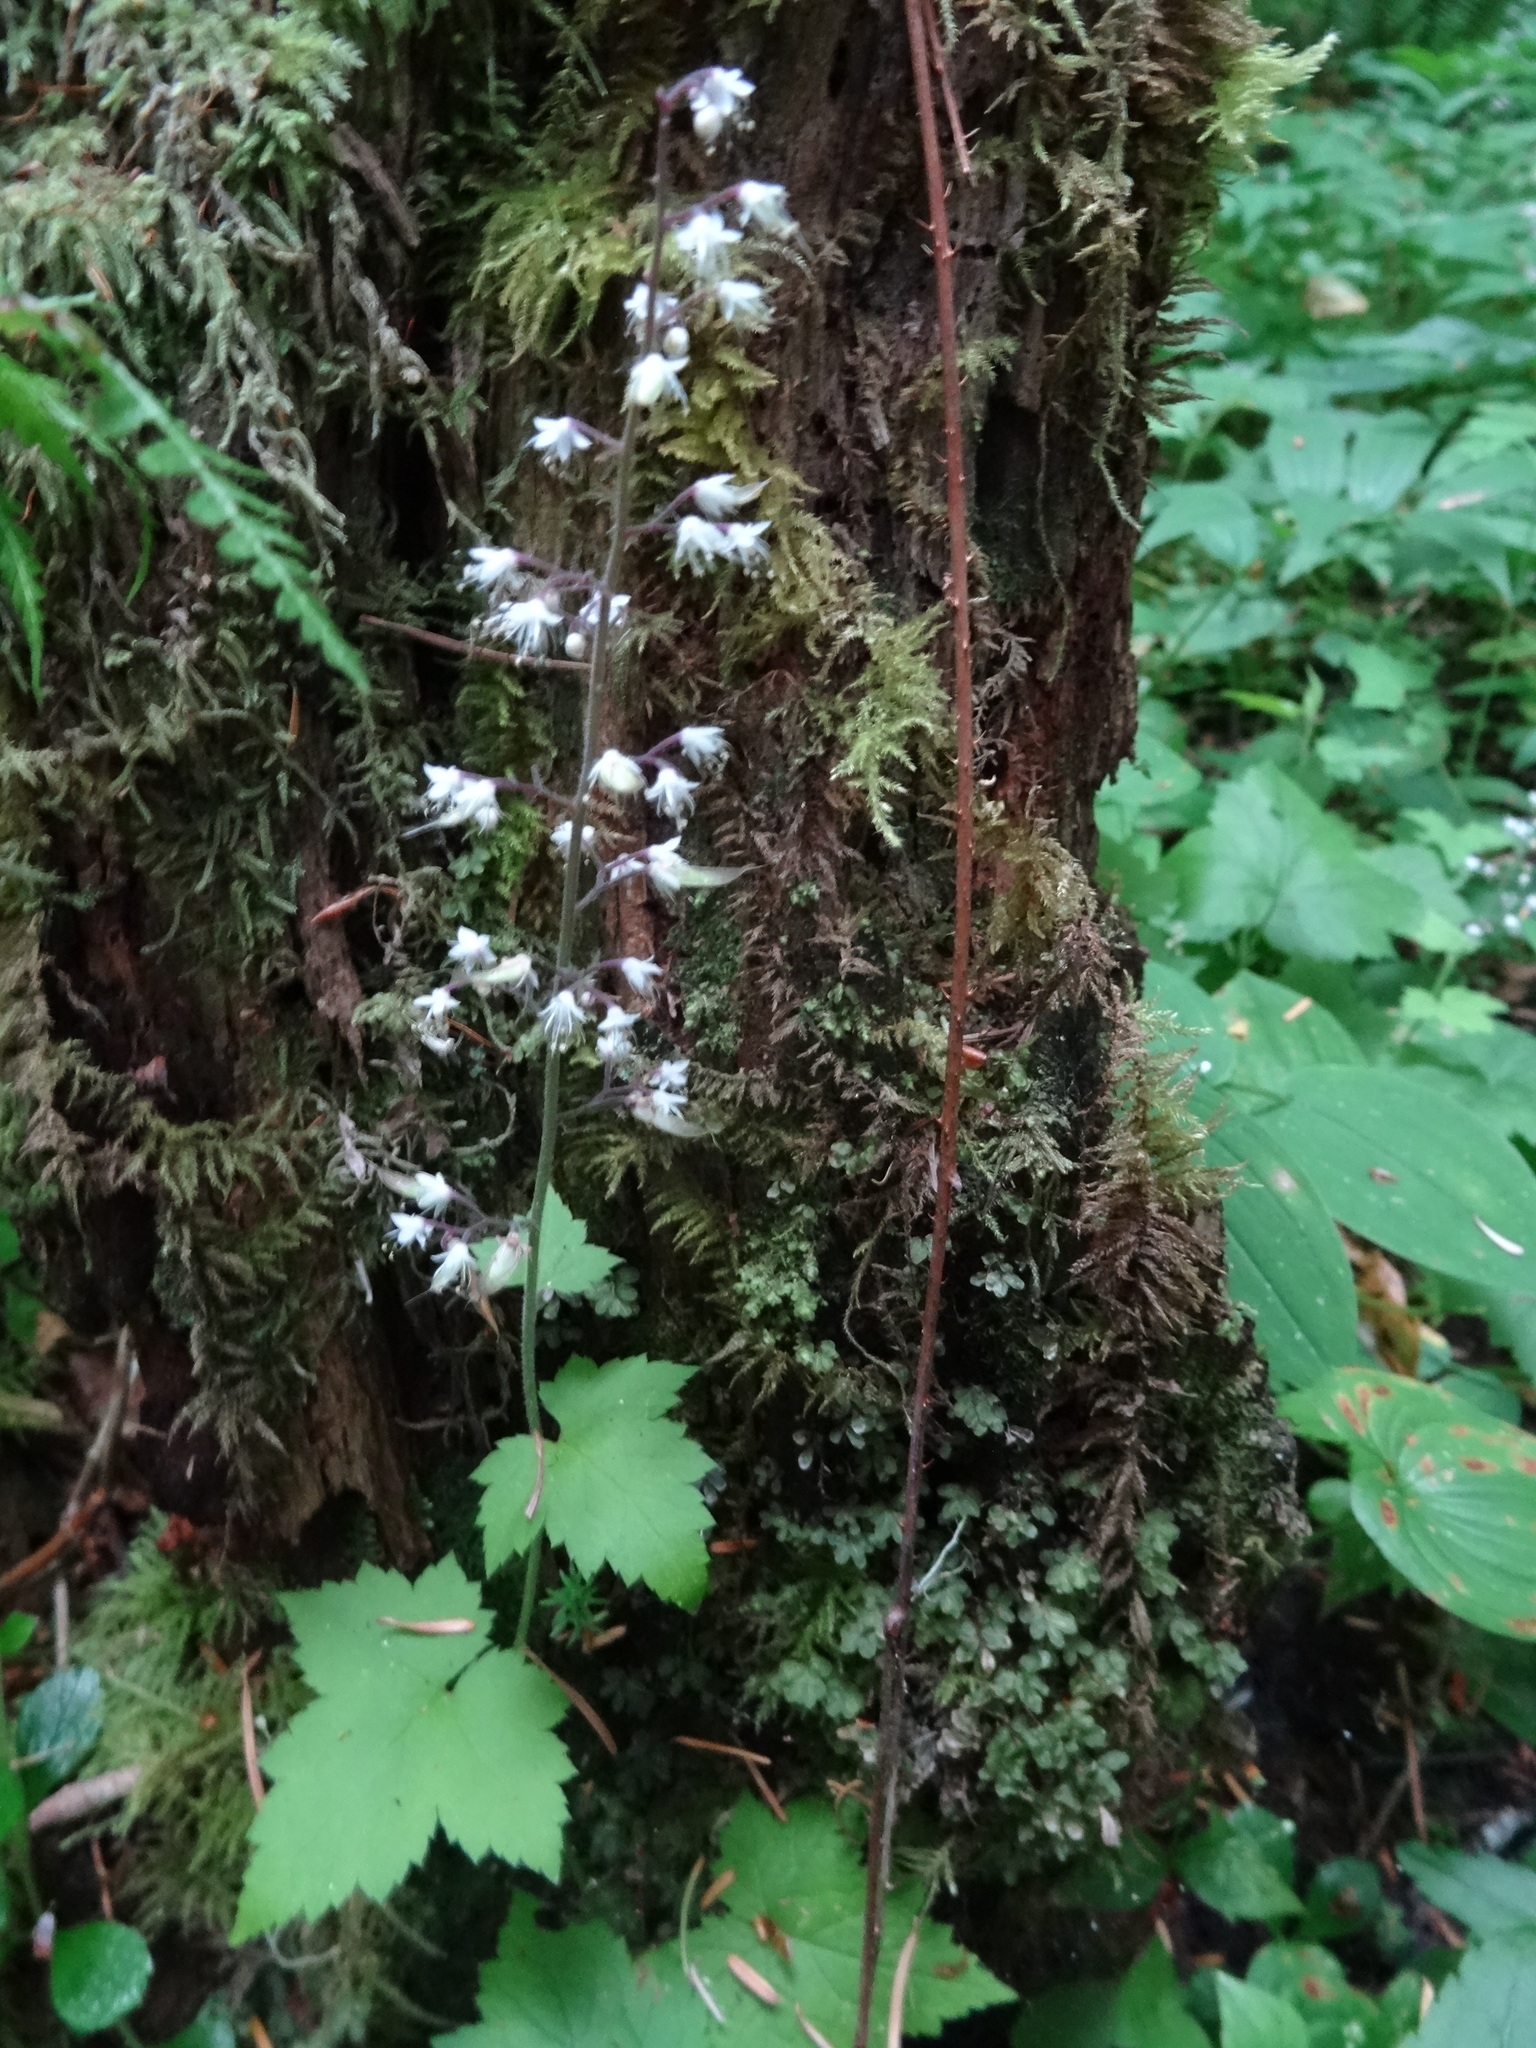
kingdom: Plantae
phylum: Tracheophyta
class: Magnoliopsida
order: Saxifragales
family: Saxifragaceae
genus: Tiarella
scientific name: Tiarella trifoliata
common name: Sugar-scoop
